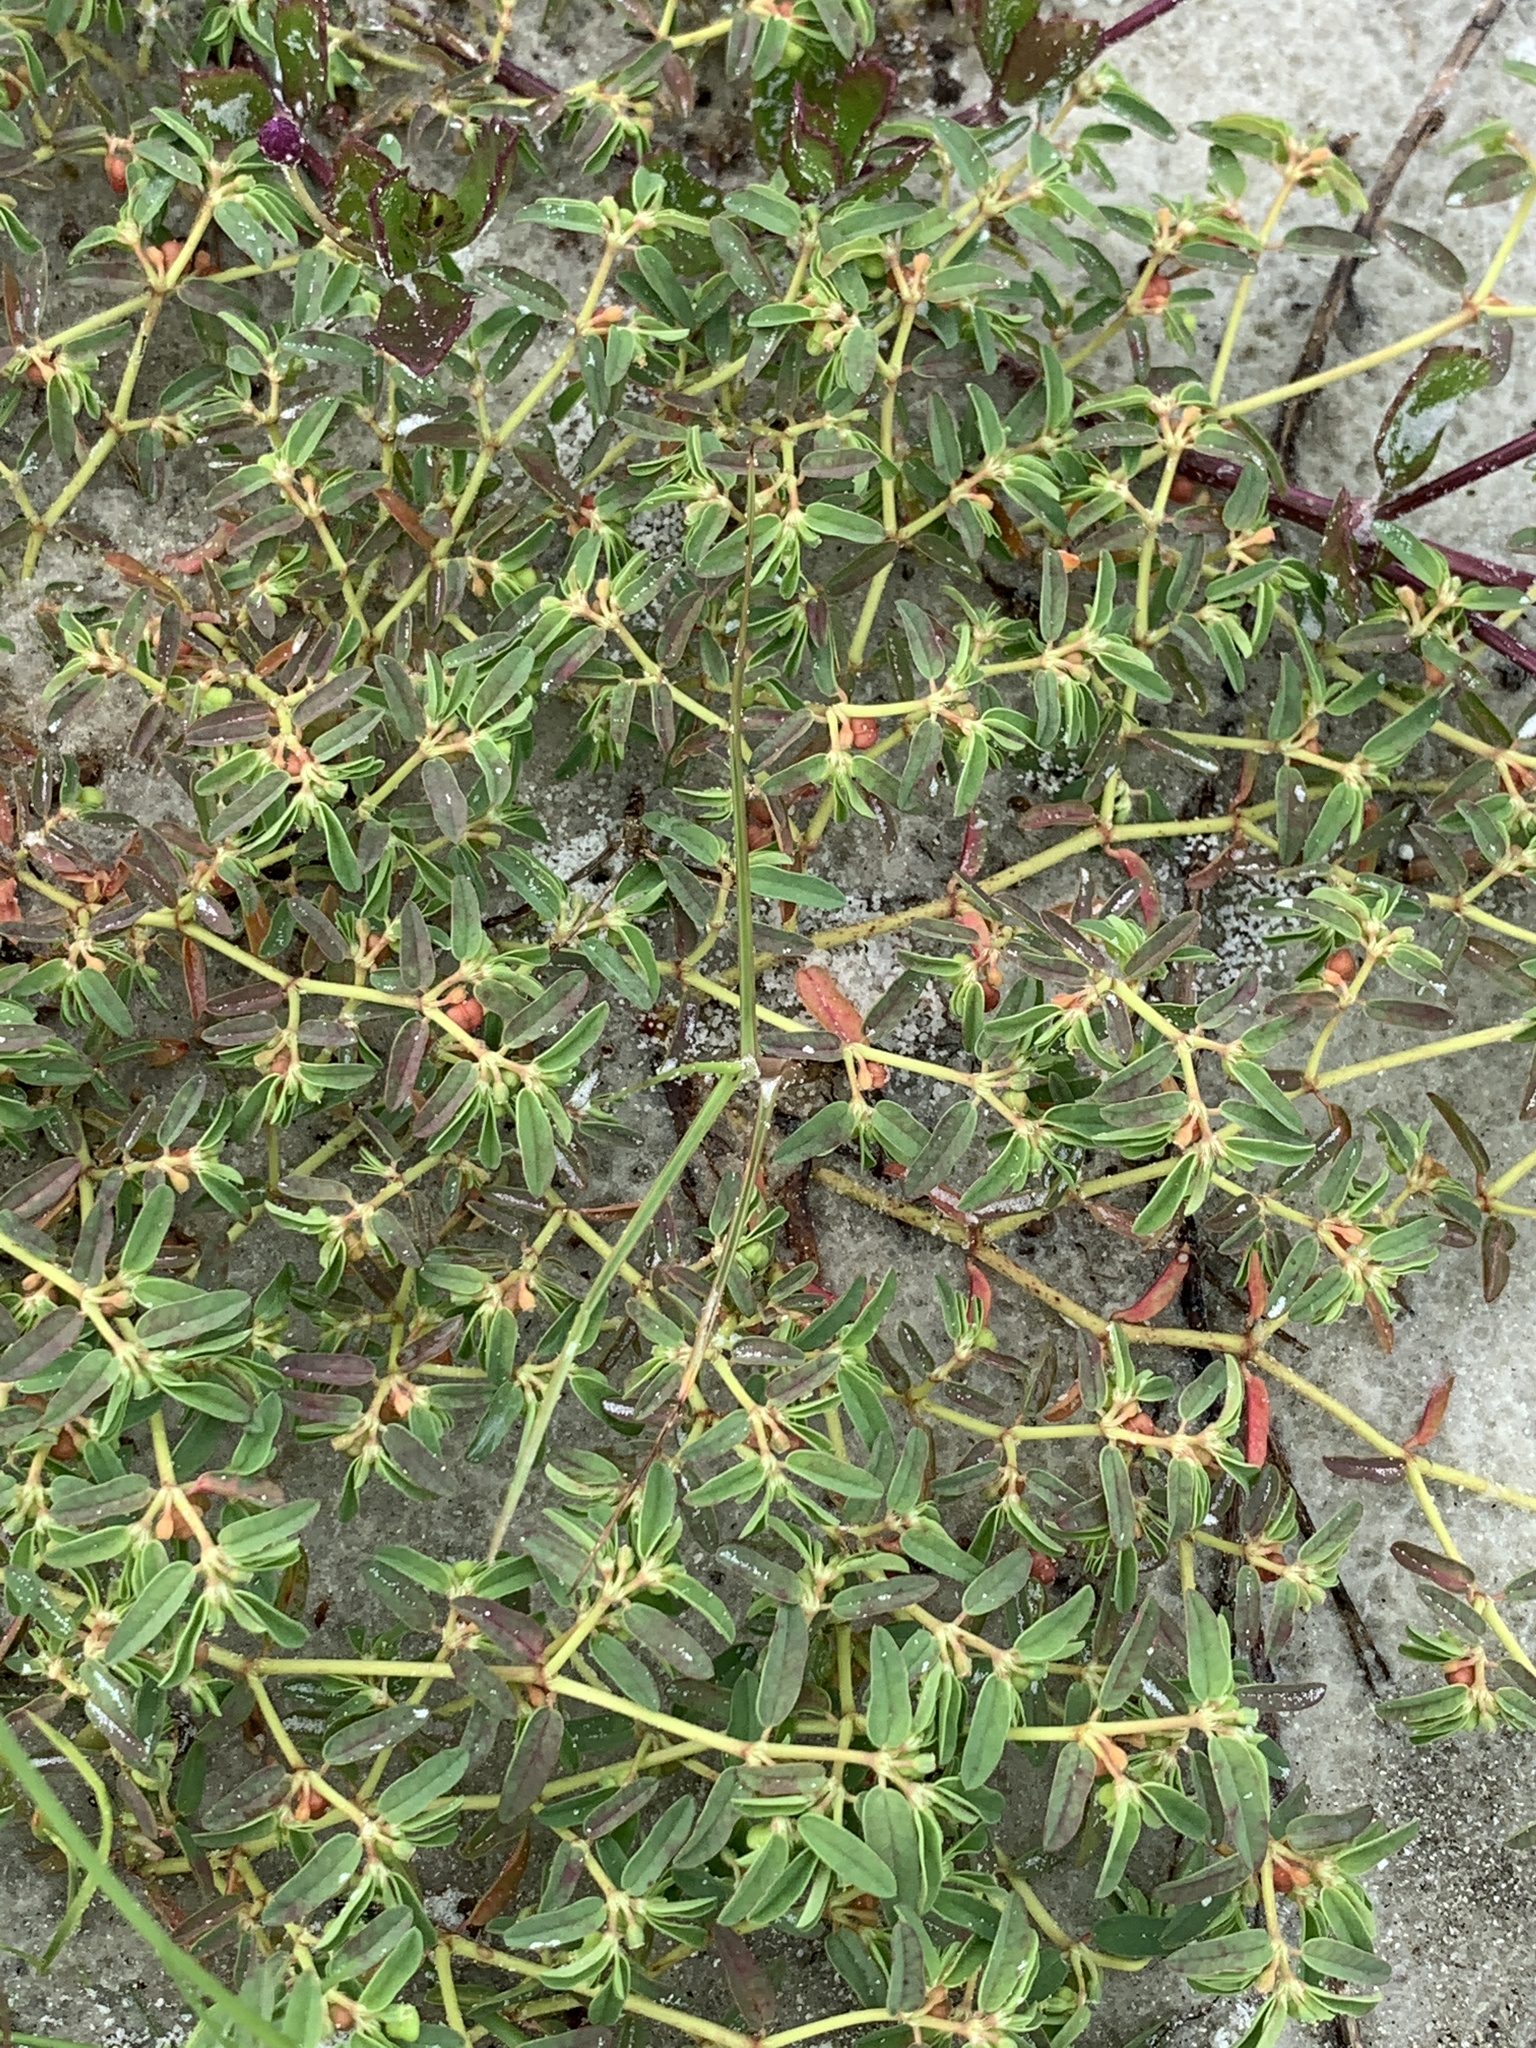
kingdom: Plantae
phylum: Tracheophyta
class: Magnoliopsida
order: Malpighiales
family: Euphorbiaceae
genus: Euphorbia
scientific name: Euphorbia bombensis
